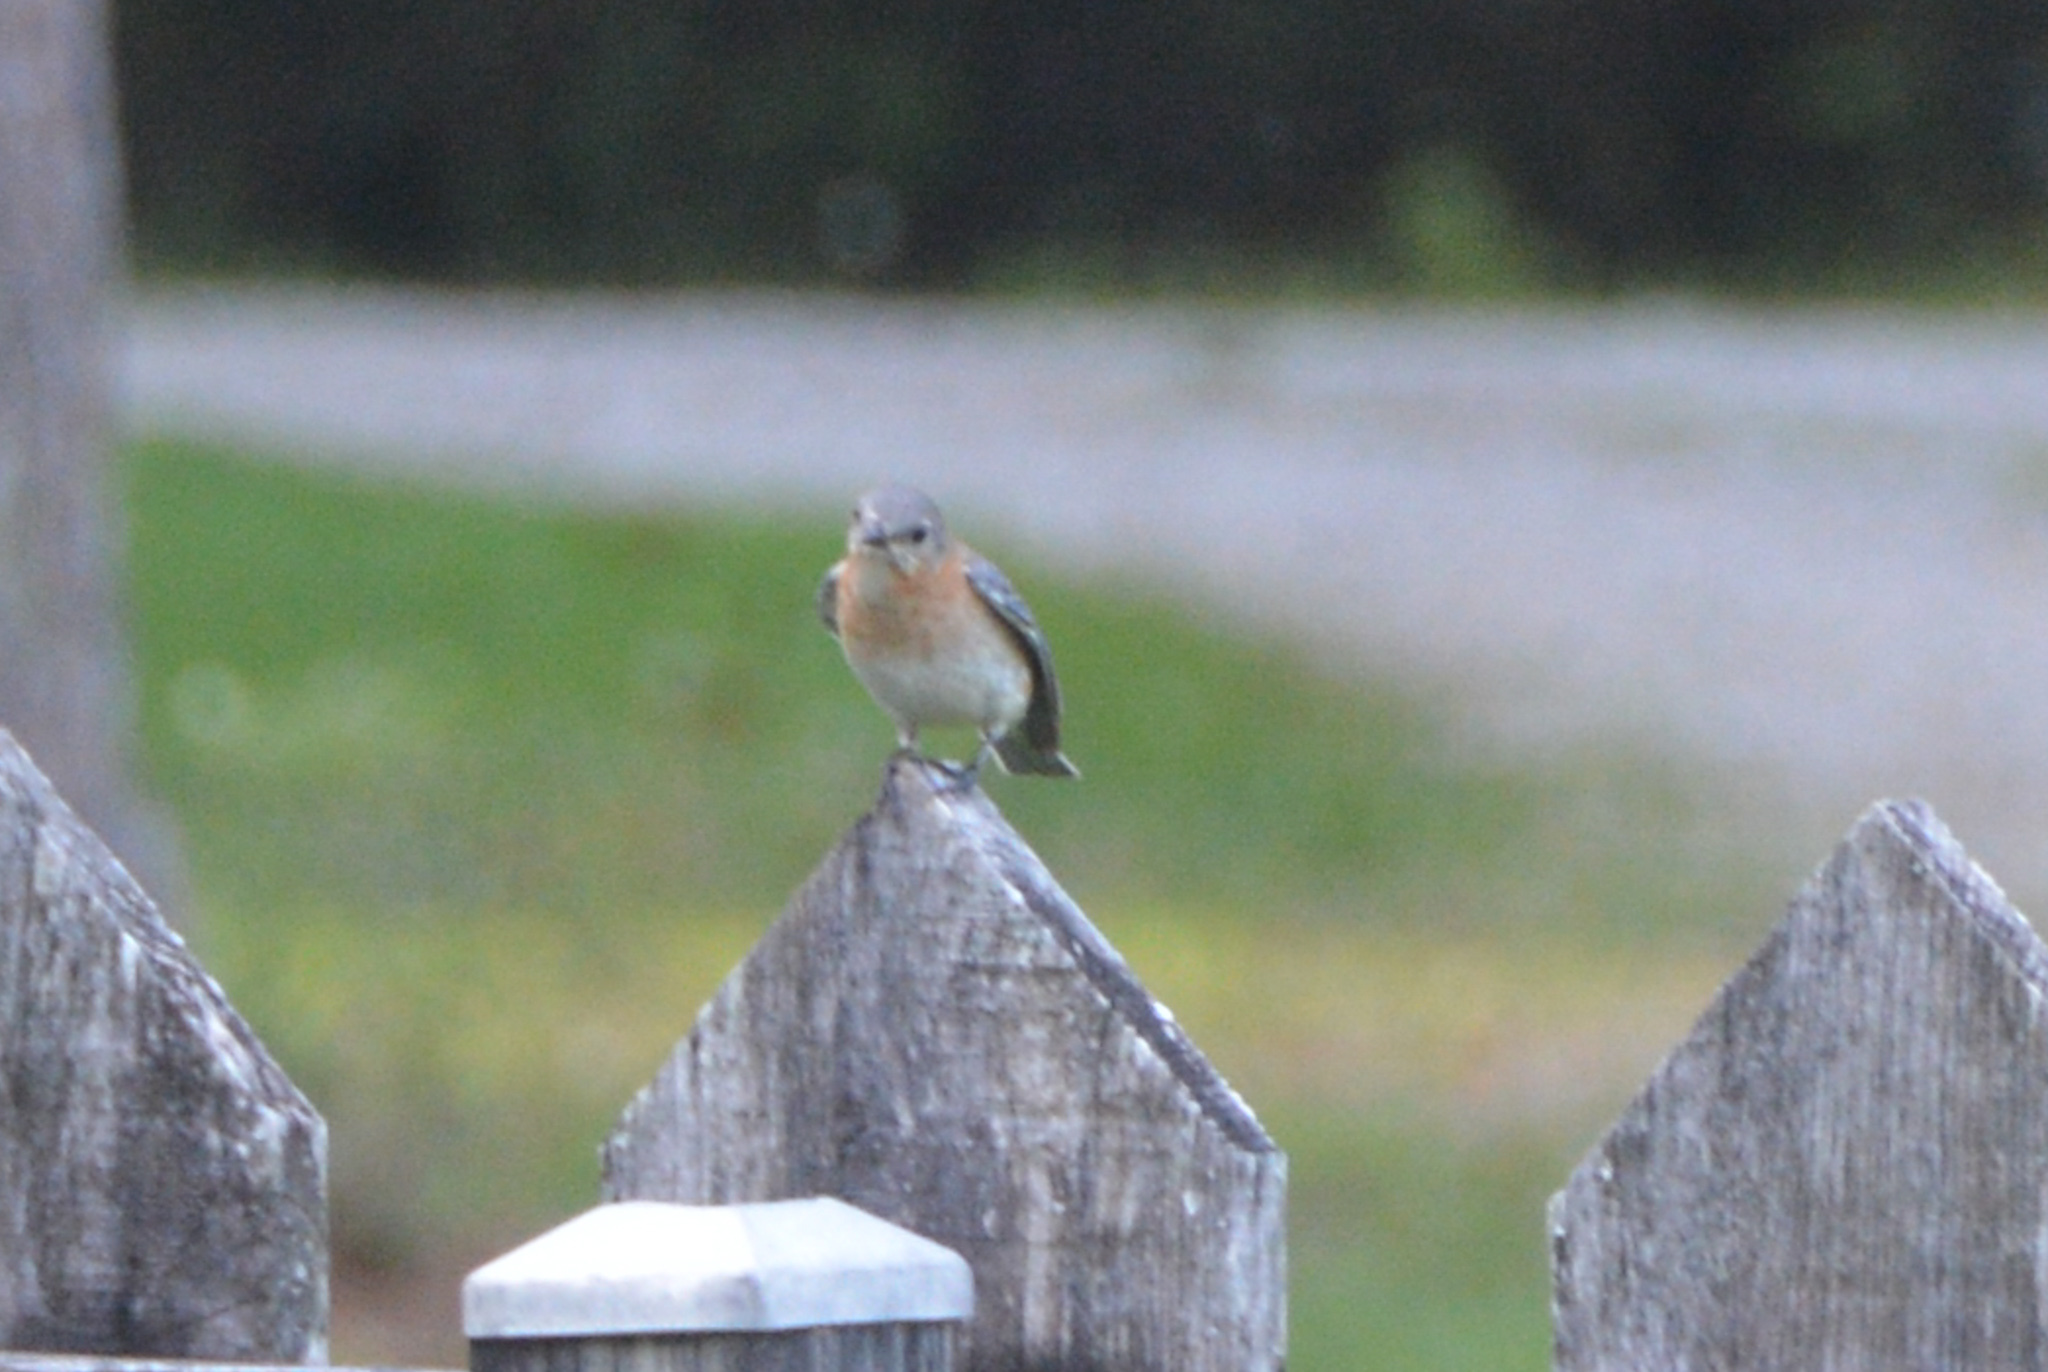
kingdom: Animalia
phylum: Chordata
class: Aves
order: Passeriformes
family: Turdidae
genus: Sialia
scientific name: Sialia sialis
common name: Eastern bluebird
